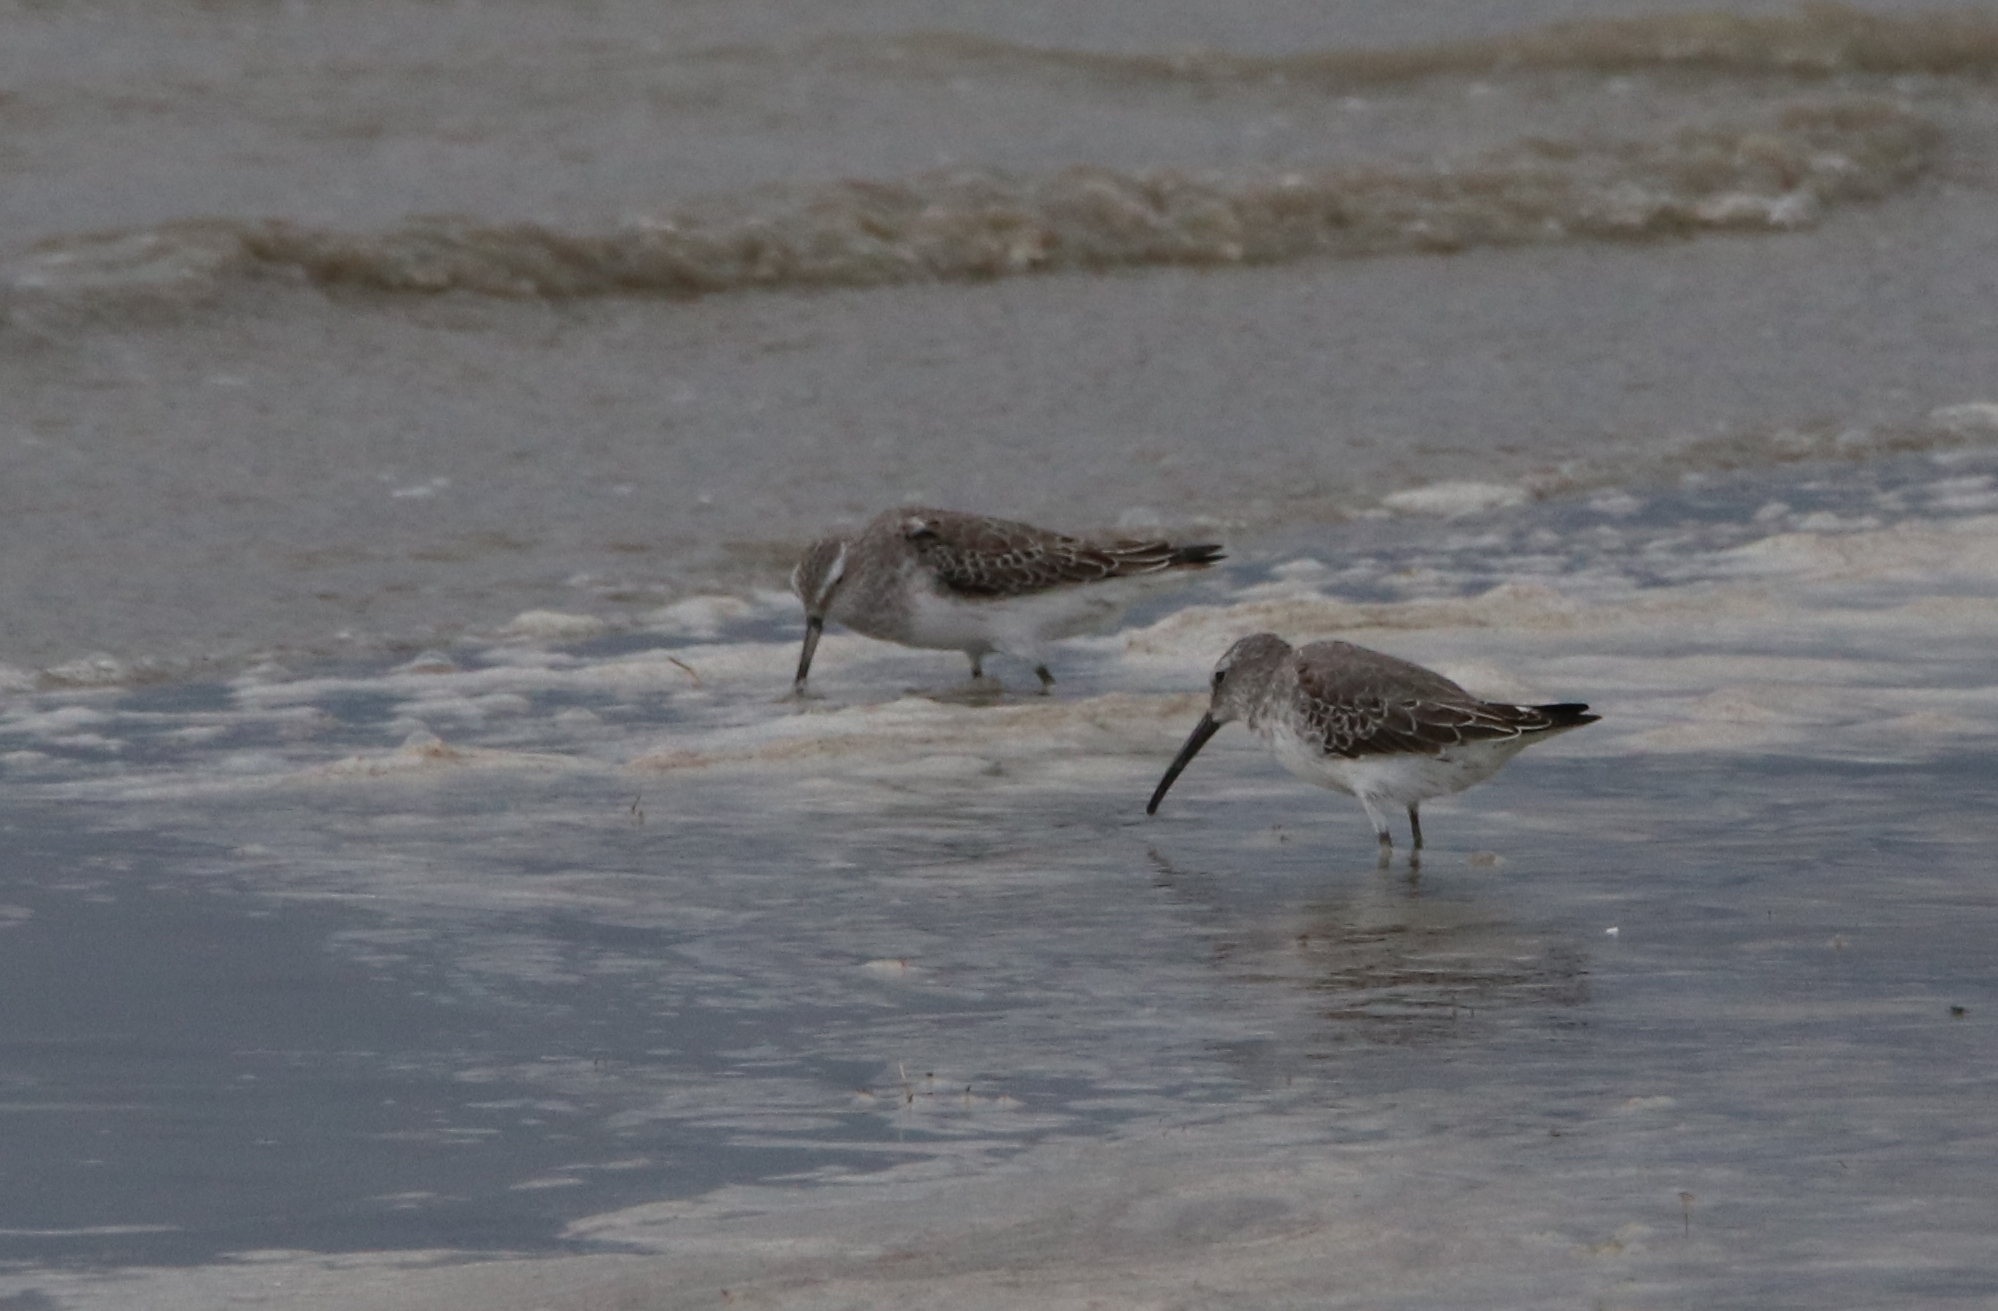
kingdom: Animalia
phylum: Chordata
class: Aves
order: Charadriiformes
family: Scolopacidae
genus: Calidris
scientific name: Calidris himantopus
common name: Stilt sandpiper
